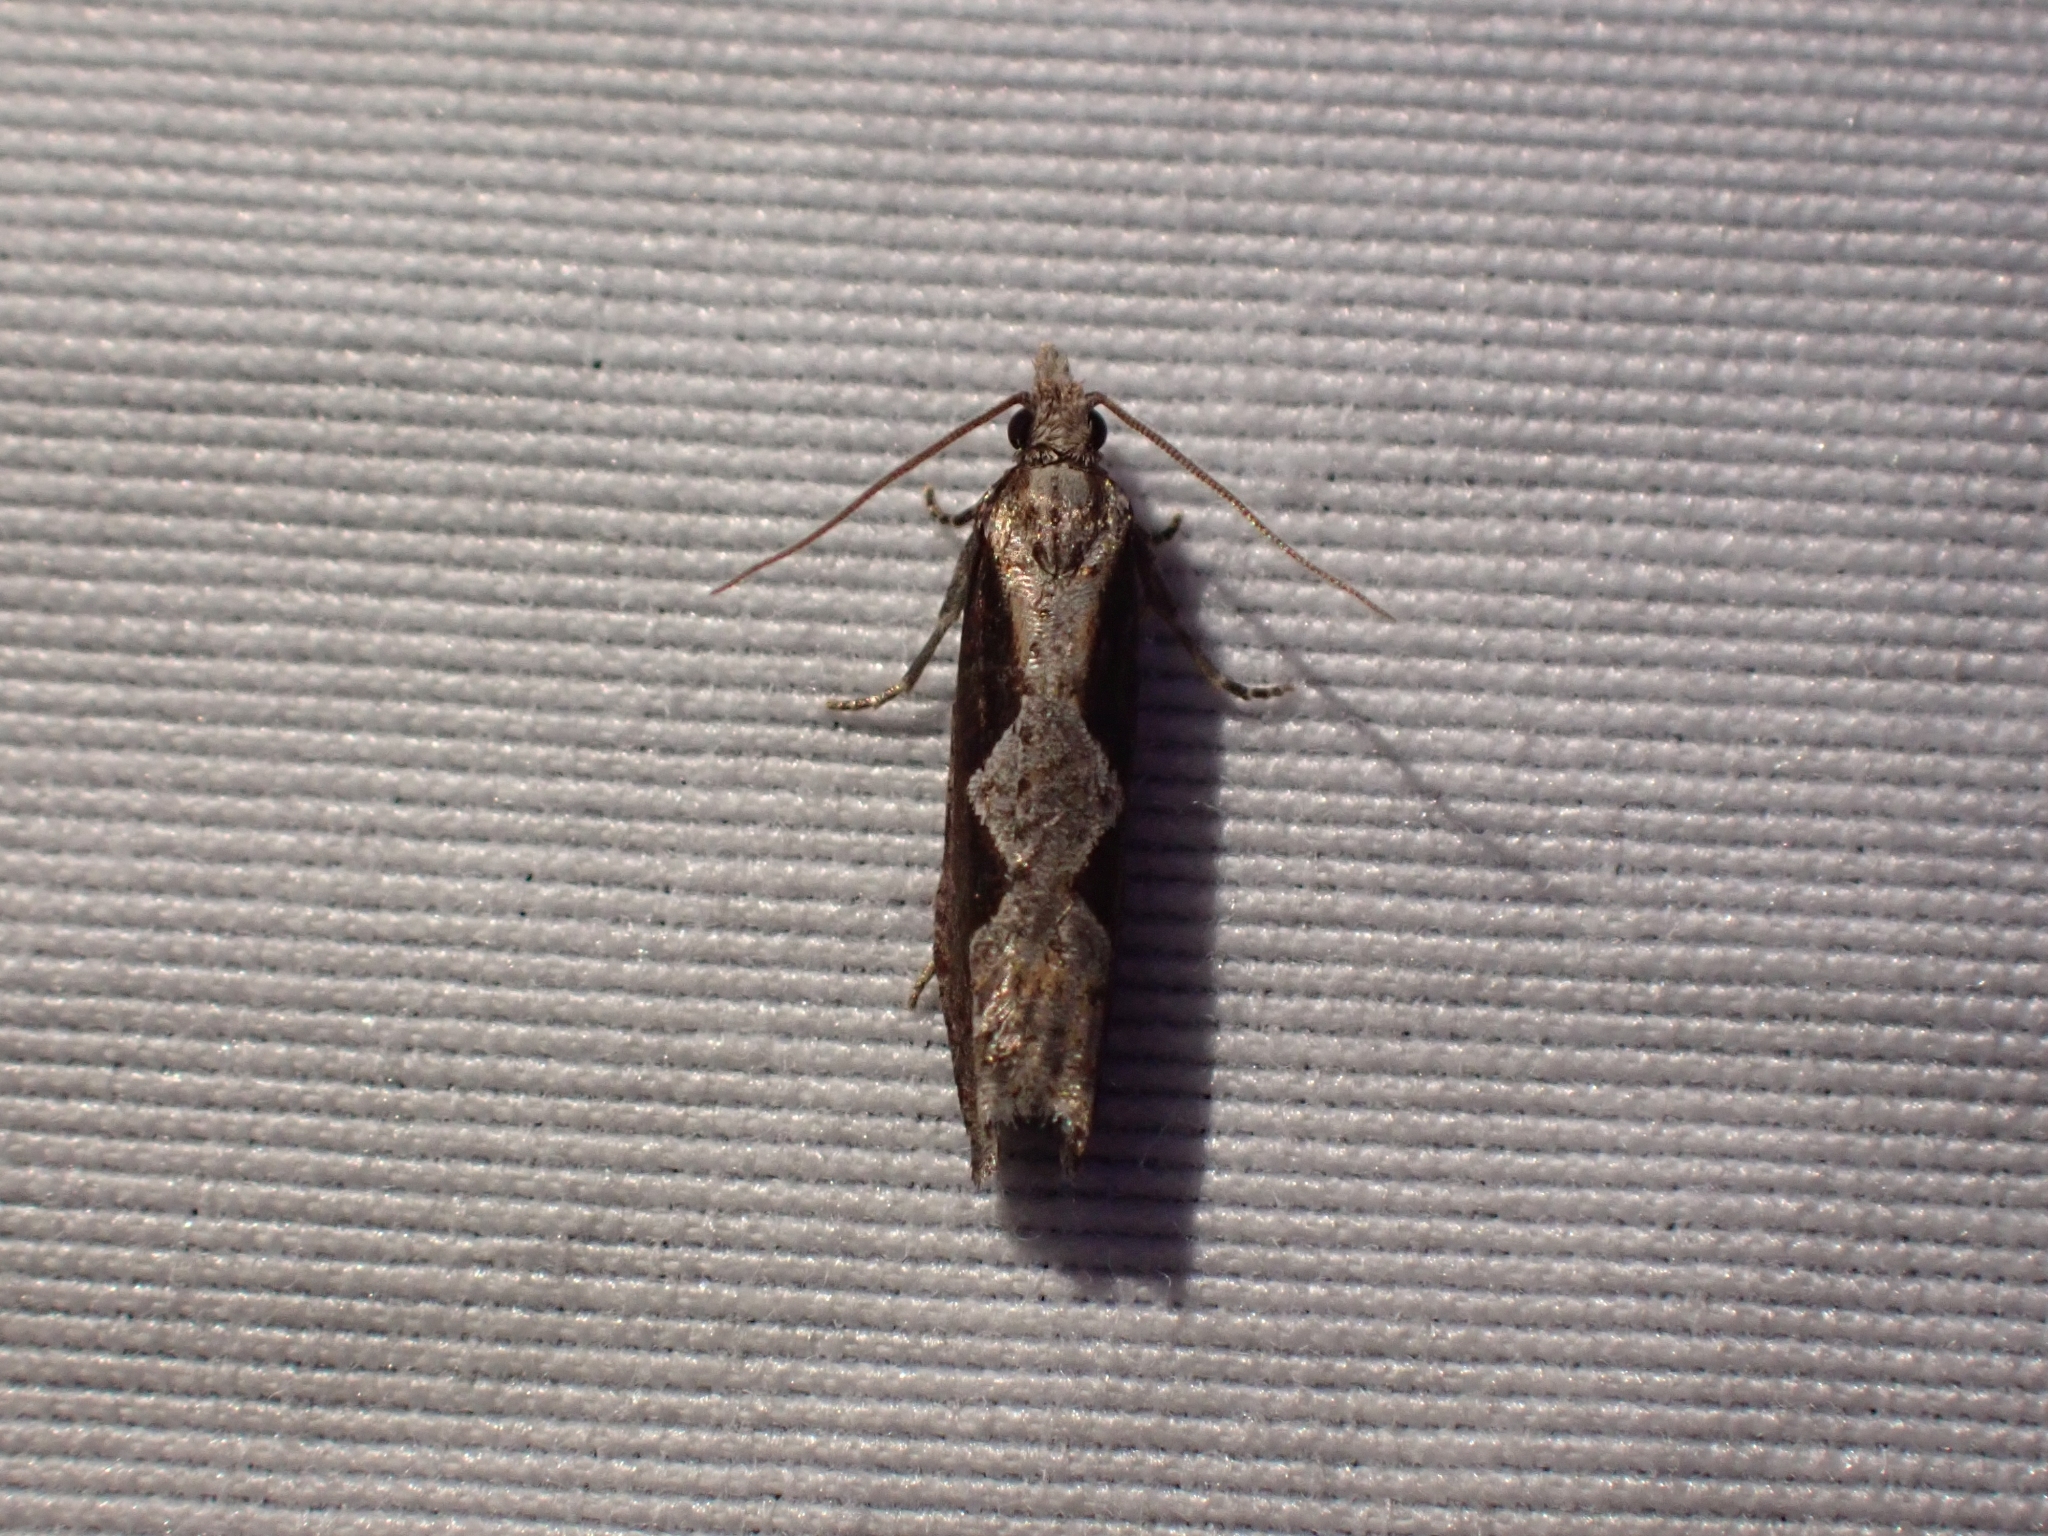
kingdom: Animalia
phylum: Arthropoda
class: Insecta
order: Lepidoptera
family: Tortricidae
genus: Epinotia
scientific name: Epinotia lindana
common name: Diamondback epinotia moth
